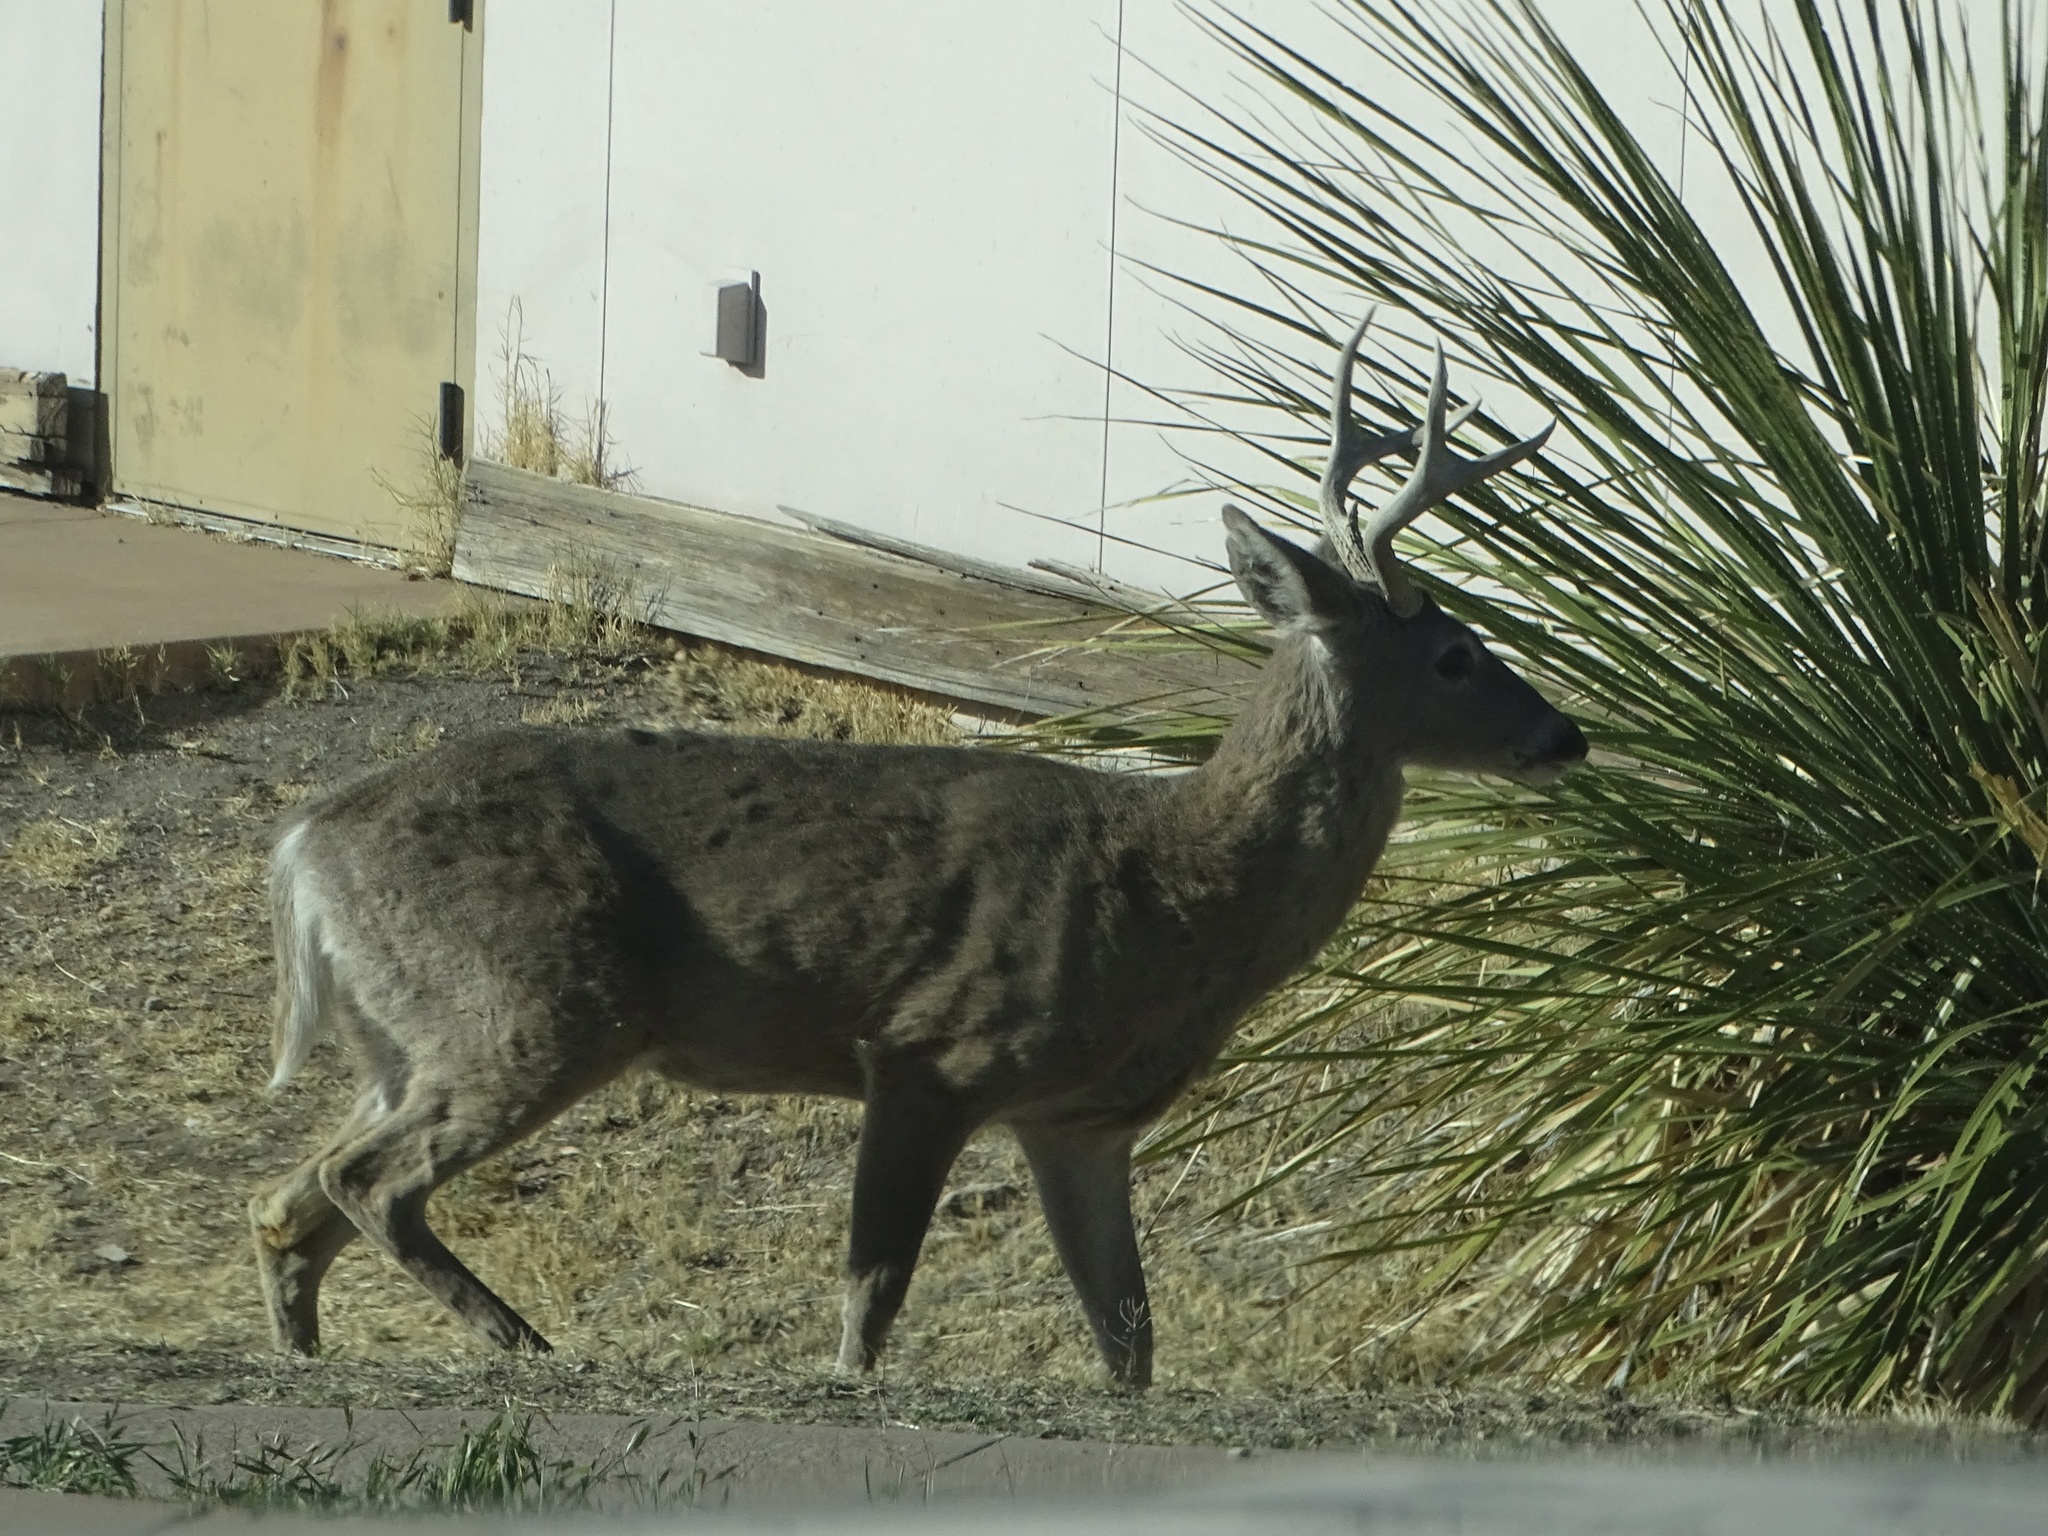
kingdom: Animalia
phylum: Chordata
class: Mammalia
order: Artiodactyla
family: Cervidae
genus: Odocoileus
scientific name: Odocoileus hemionus
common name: Mule deer
